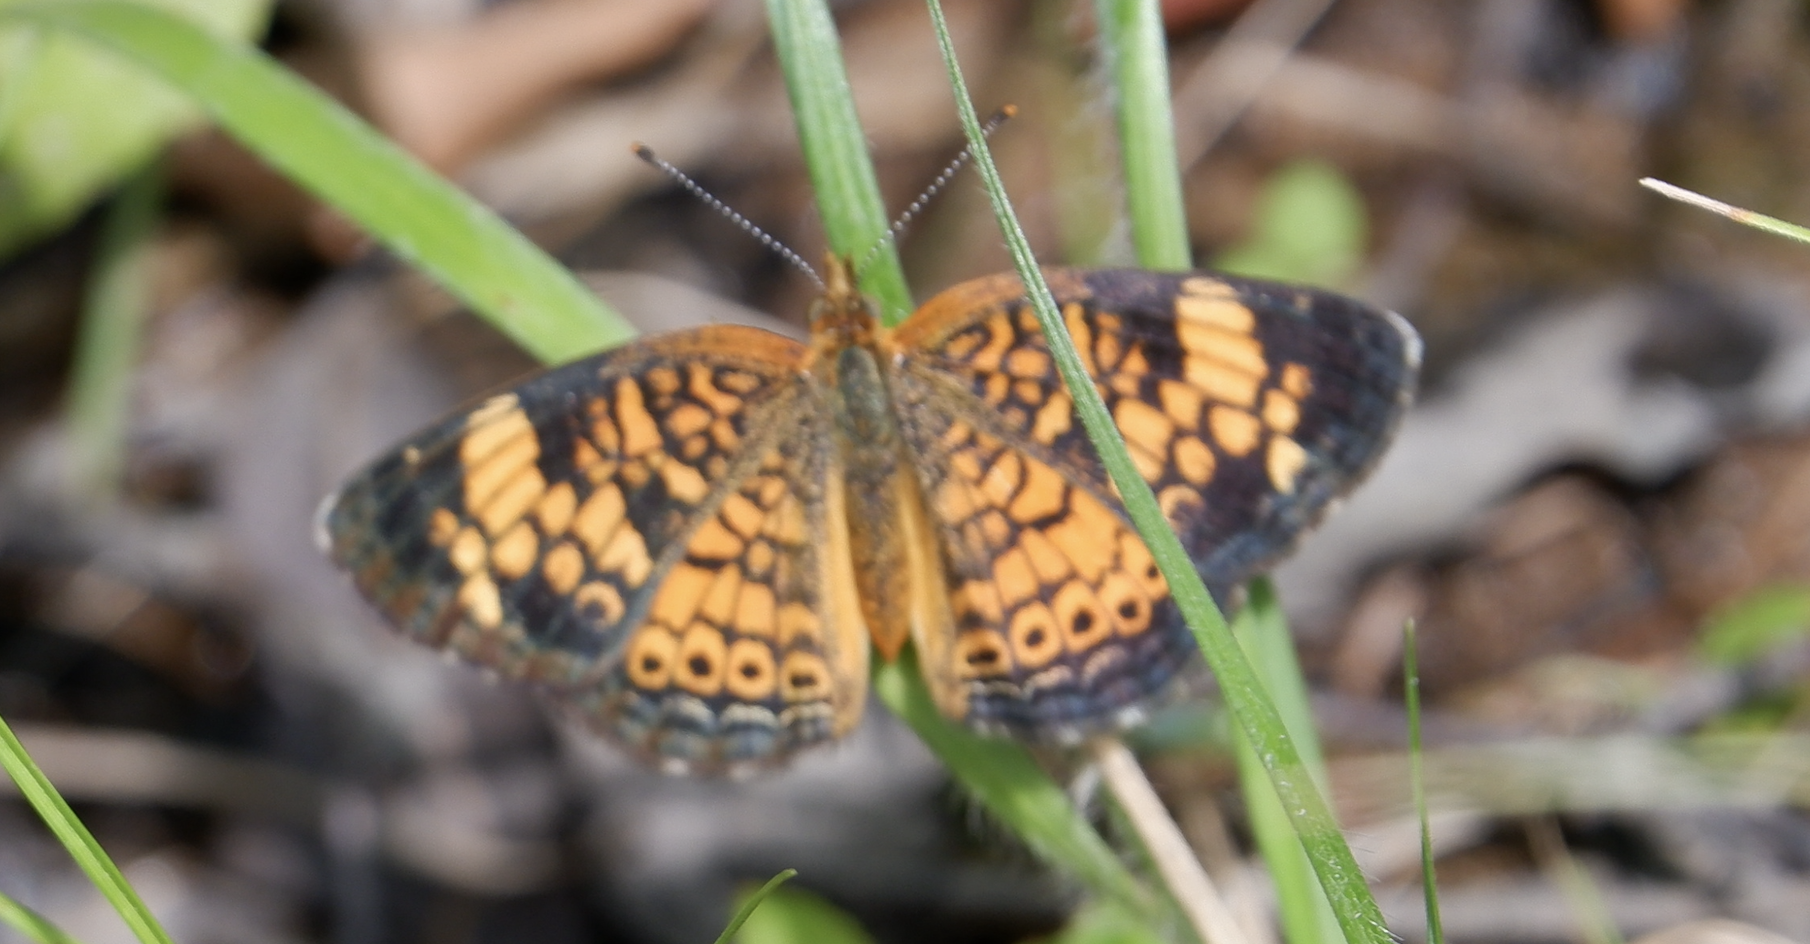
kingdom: Animalia
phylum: Arthropoda
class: Insecta
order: Lepidoptera
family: Nymphalidae
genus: Phyciodes
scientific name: Phyciodes tharos
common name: Pearl crescent
